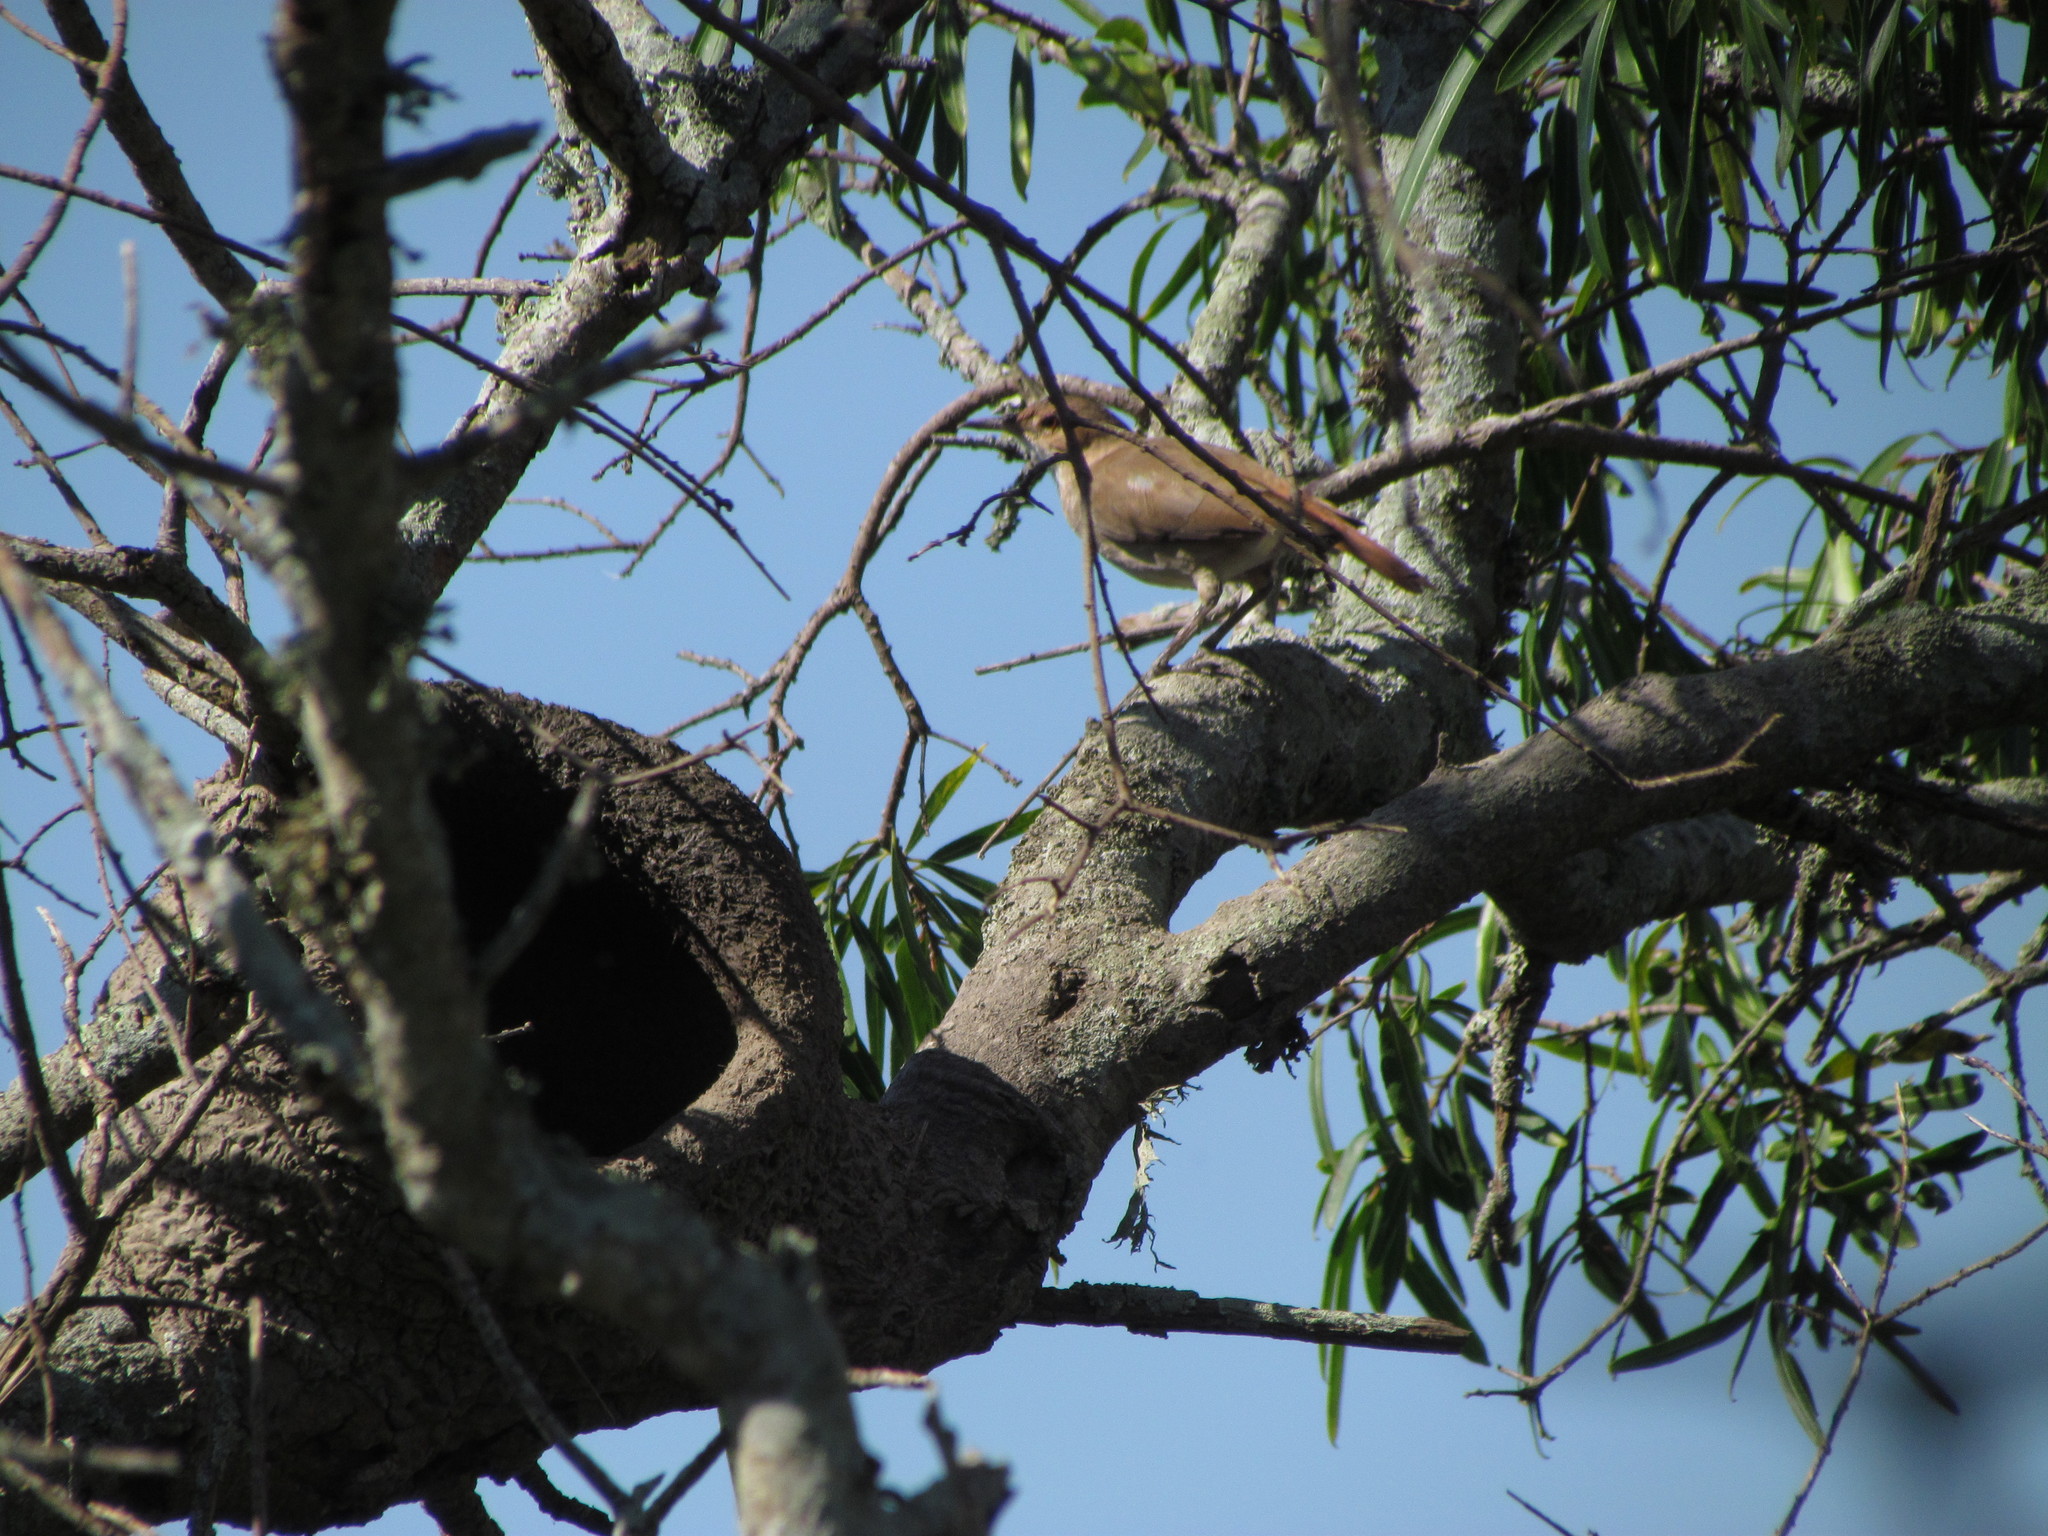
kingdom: Animalia
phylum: Chordata
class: Aves
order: Passeriformes
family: Furnariidae
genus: Furnarius
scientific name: Furnarius rufus
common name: Rufous hornero
